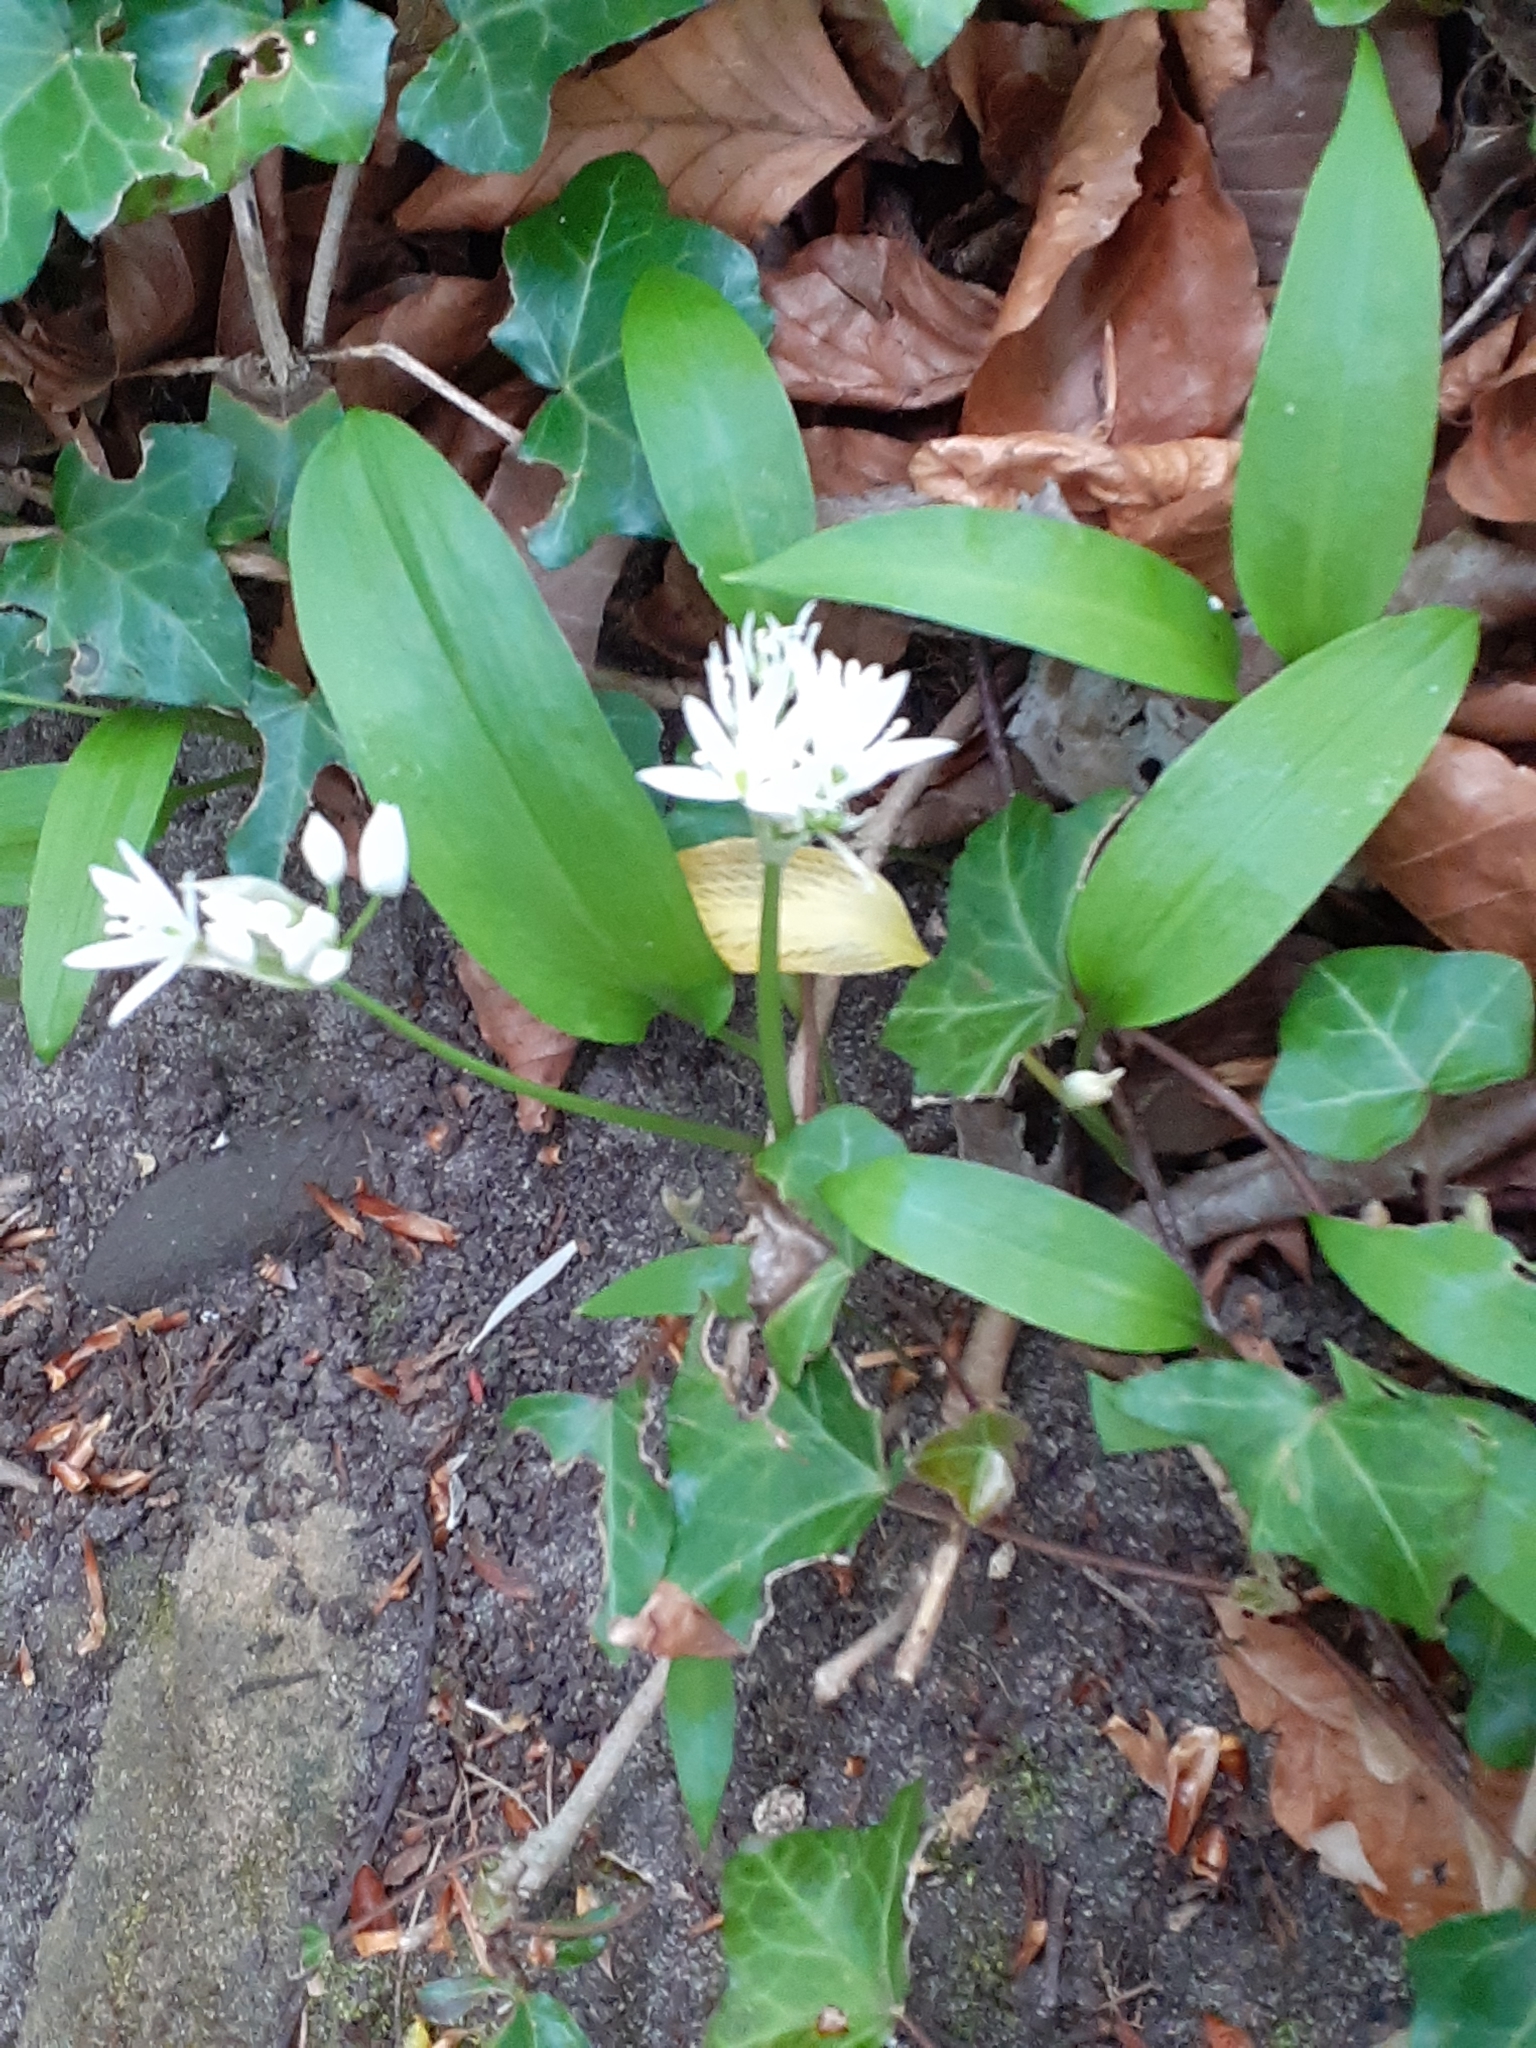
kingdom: Plantae
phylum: Tracheophyta
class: Liliopsida
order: Asparagales
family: Amaryllidaceae
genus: Allium
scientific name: Allium ursinum
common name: Ramsons
